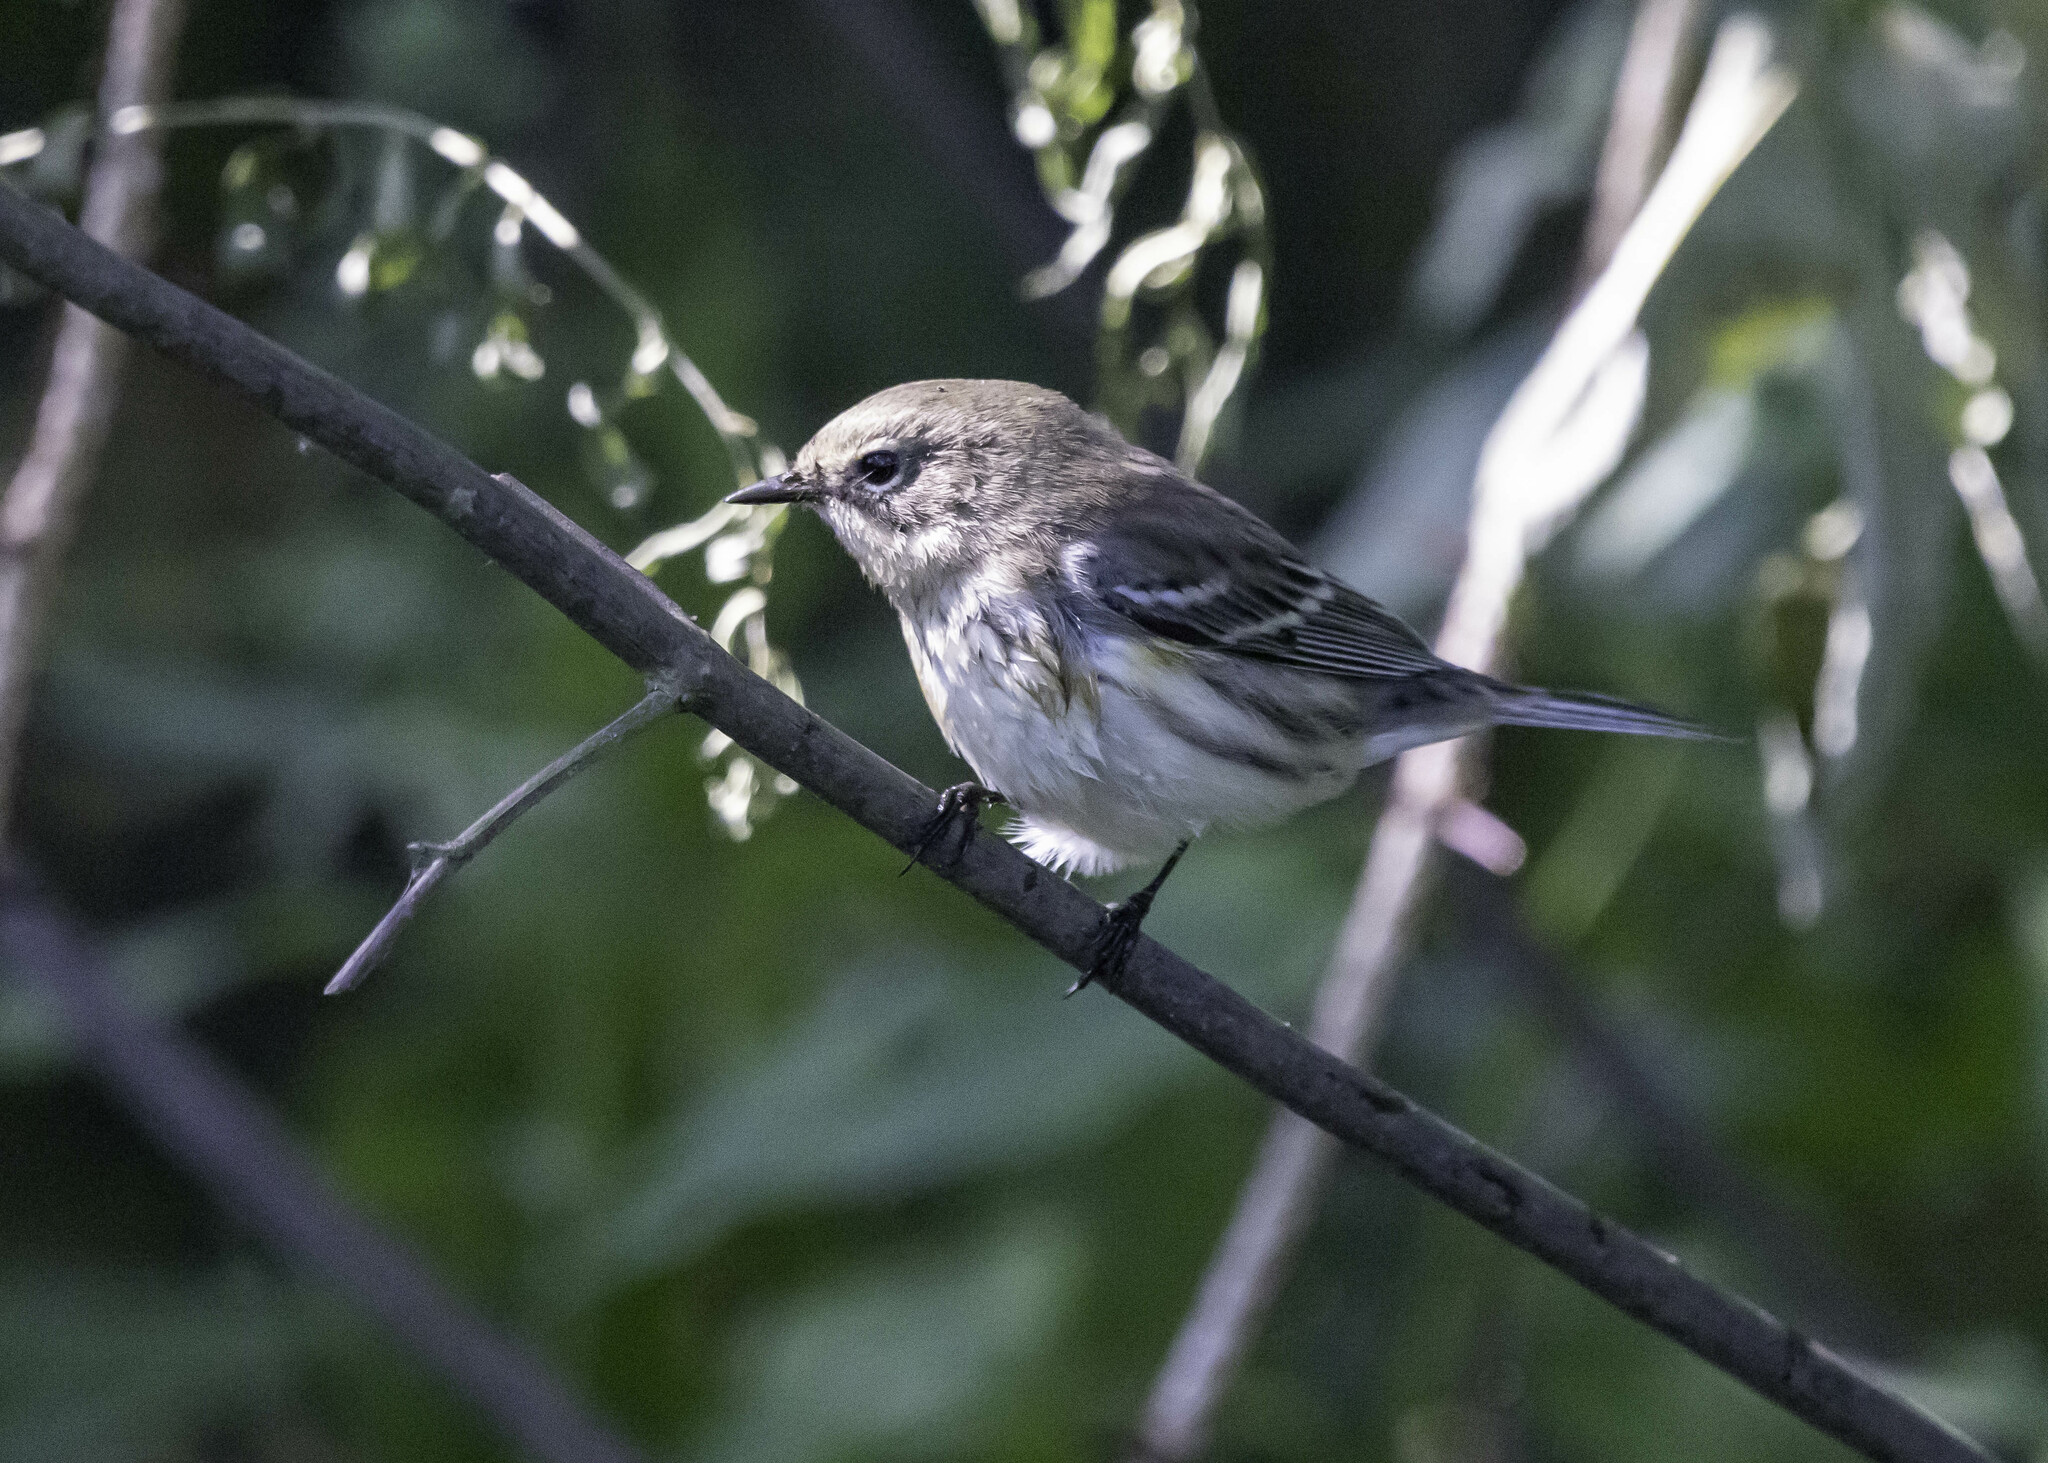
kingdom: Animalia
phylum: Chordata
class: Aves
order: Passeriformes
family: Parulidae
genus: Setophaga
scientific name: Setophaga coronata
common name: Myrtle warbler
